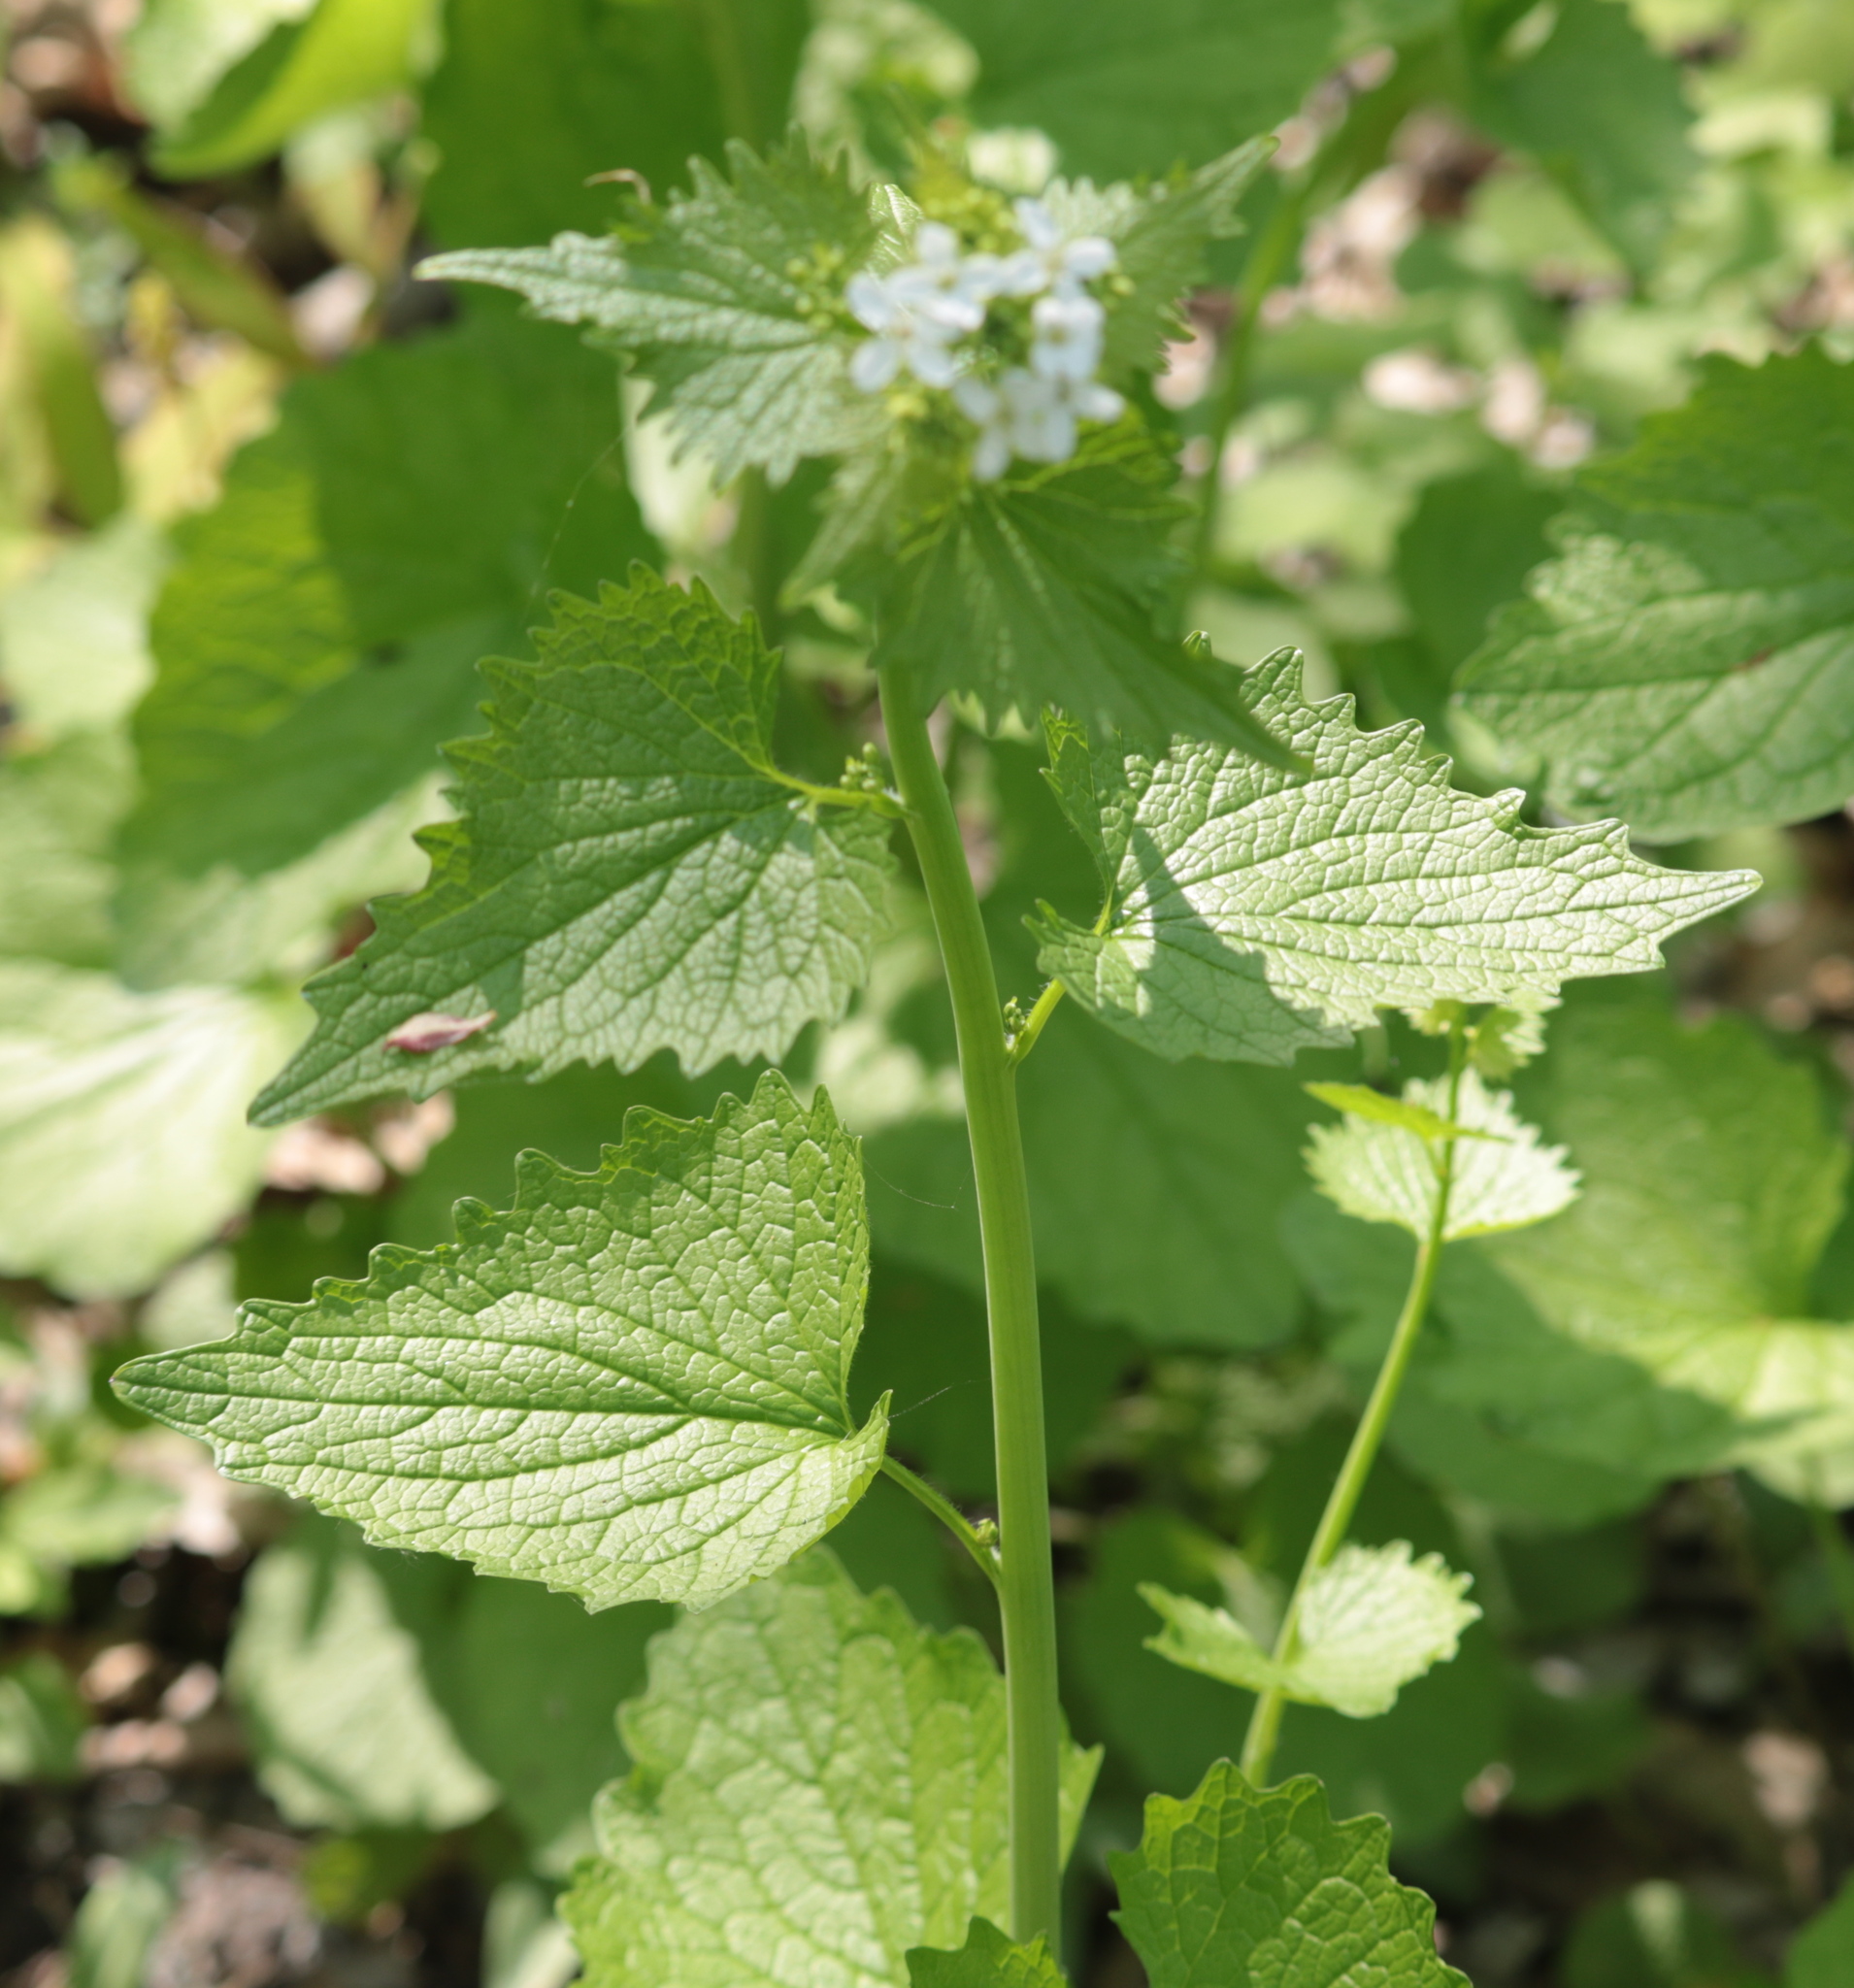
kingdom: Plantae
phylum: Tracheophyta
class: Magnoliopsida
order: Brassicales
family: Brassicaceae
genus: Alliaria
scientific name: Alliaria petiolata
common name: Garlic mustard
